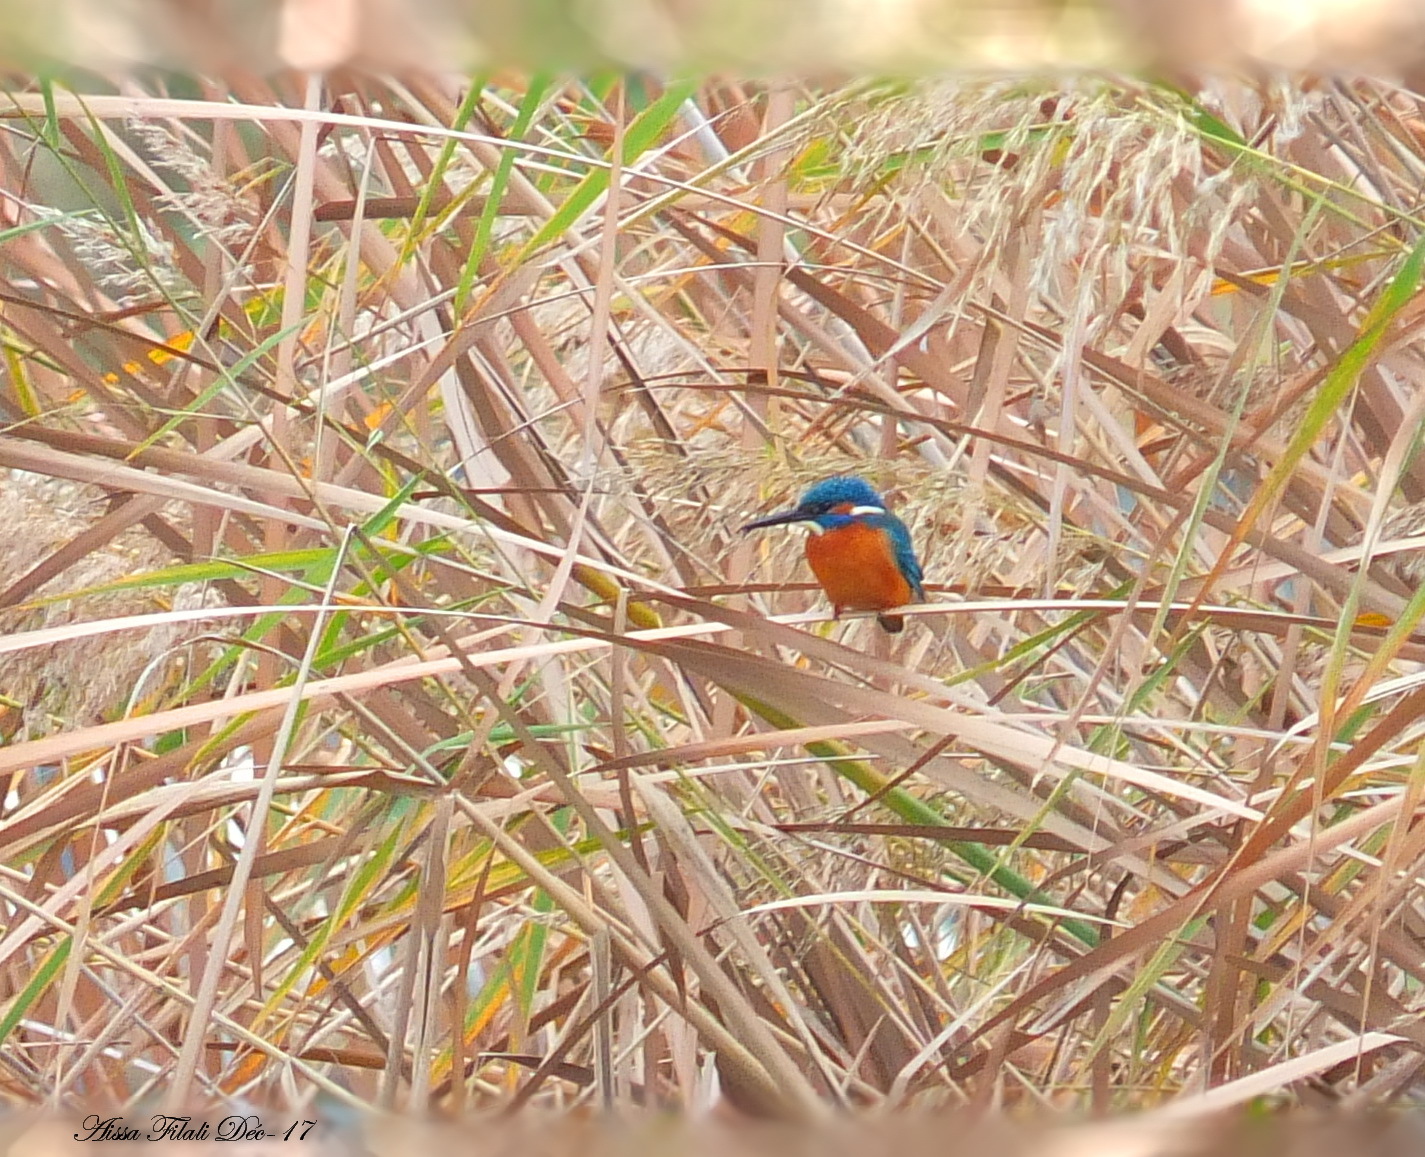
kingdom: Animalia
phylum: Chordata
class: Aves
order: Coraciiformes
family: Alcedinidae
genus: Alcedo
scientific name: Alcedo atthis
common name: Common kingfisher
